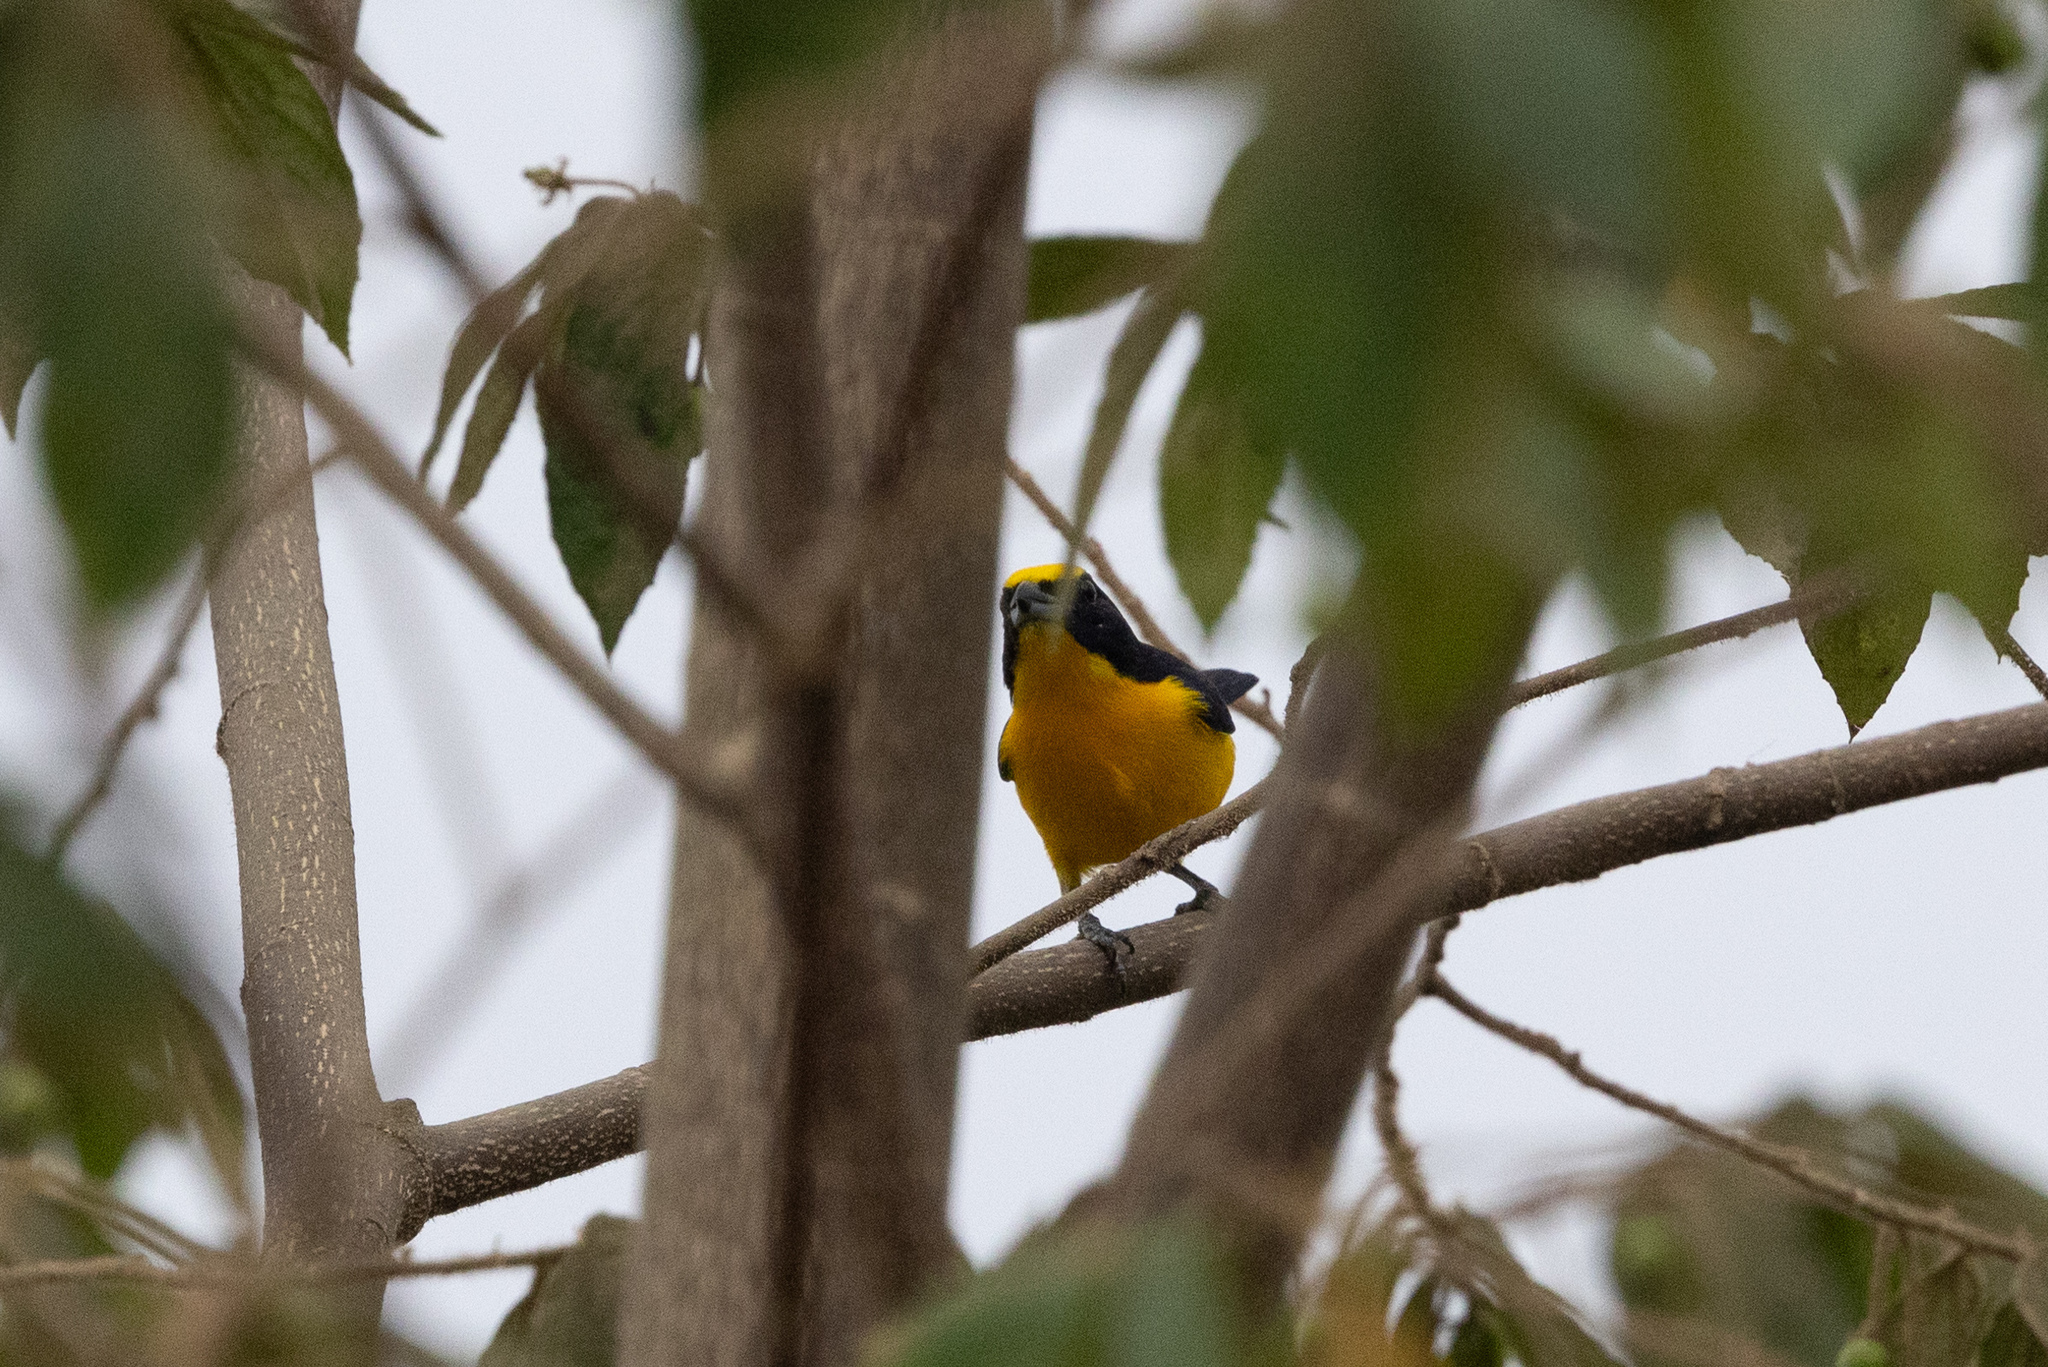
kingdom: Animalia
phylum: Chordata
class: Aves
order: Passeriformes
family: Fringillidae
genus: Euphonia
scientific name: Euphonia laniirostris
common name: Thick-billed euphonia
